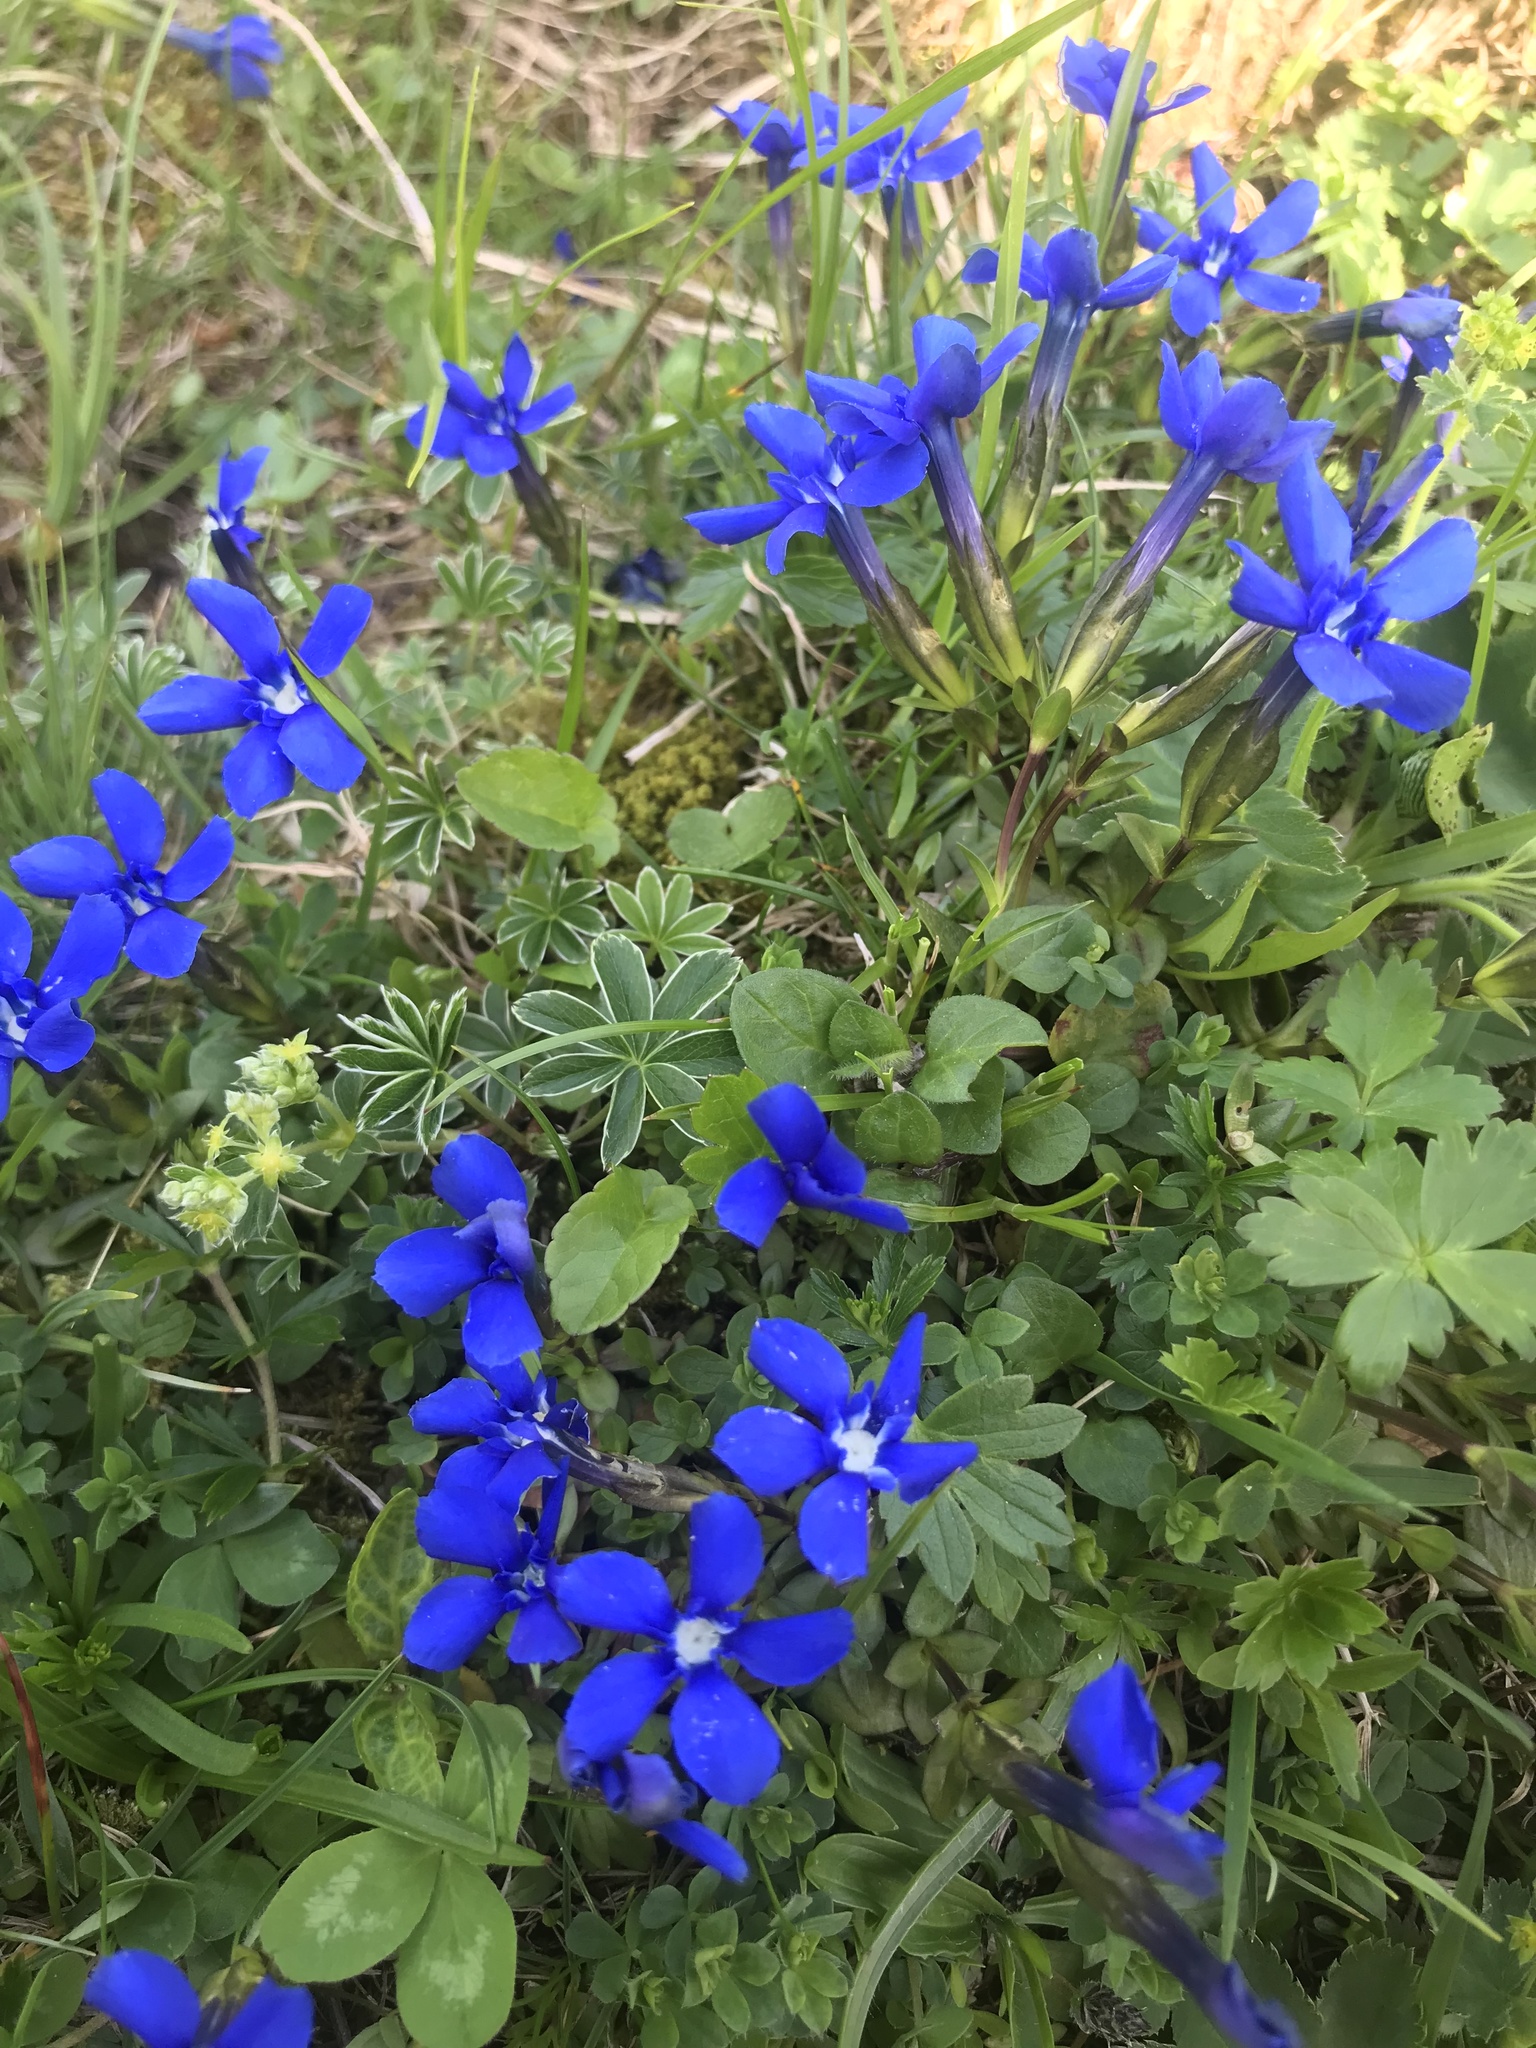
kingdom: Plantae
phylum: Tracheophyta
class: Magnoliopsida
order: Gentianales
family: Gentianaceae
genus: Gentiana
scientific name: Gentiana verna
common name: Spring gentian
